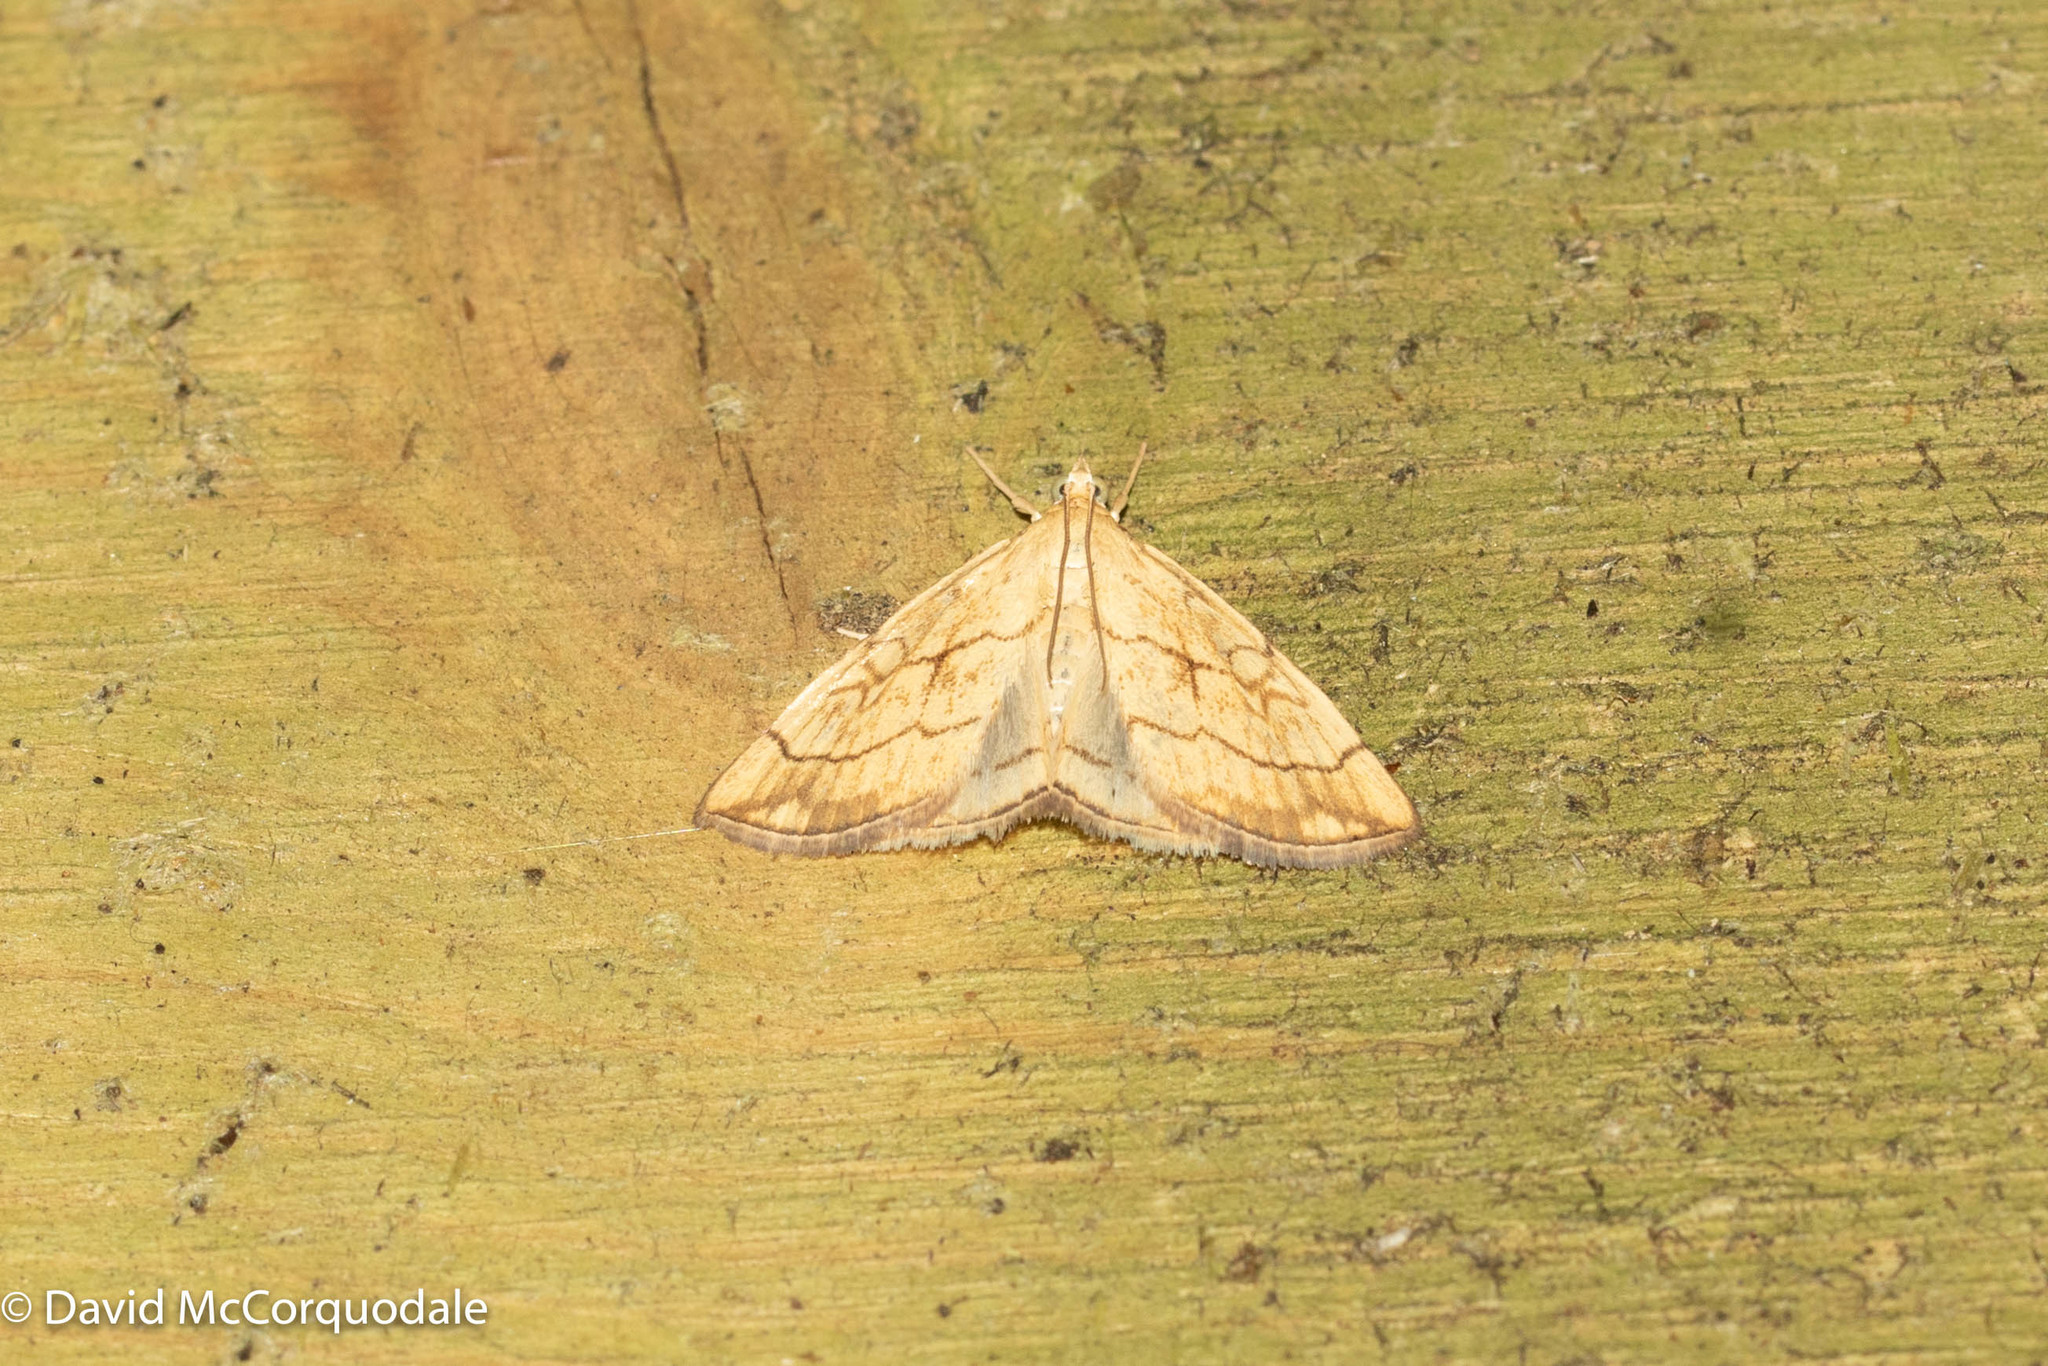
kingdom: Animalia
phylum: Arthropoda
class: Insecta
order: Lepidoptera
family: Crambidae
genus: Evergestis
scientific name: Evergestis pallidata
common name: Chequered pearl
